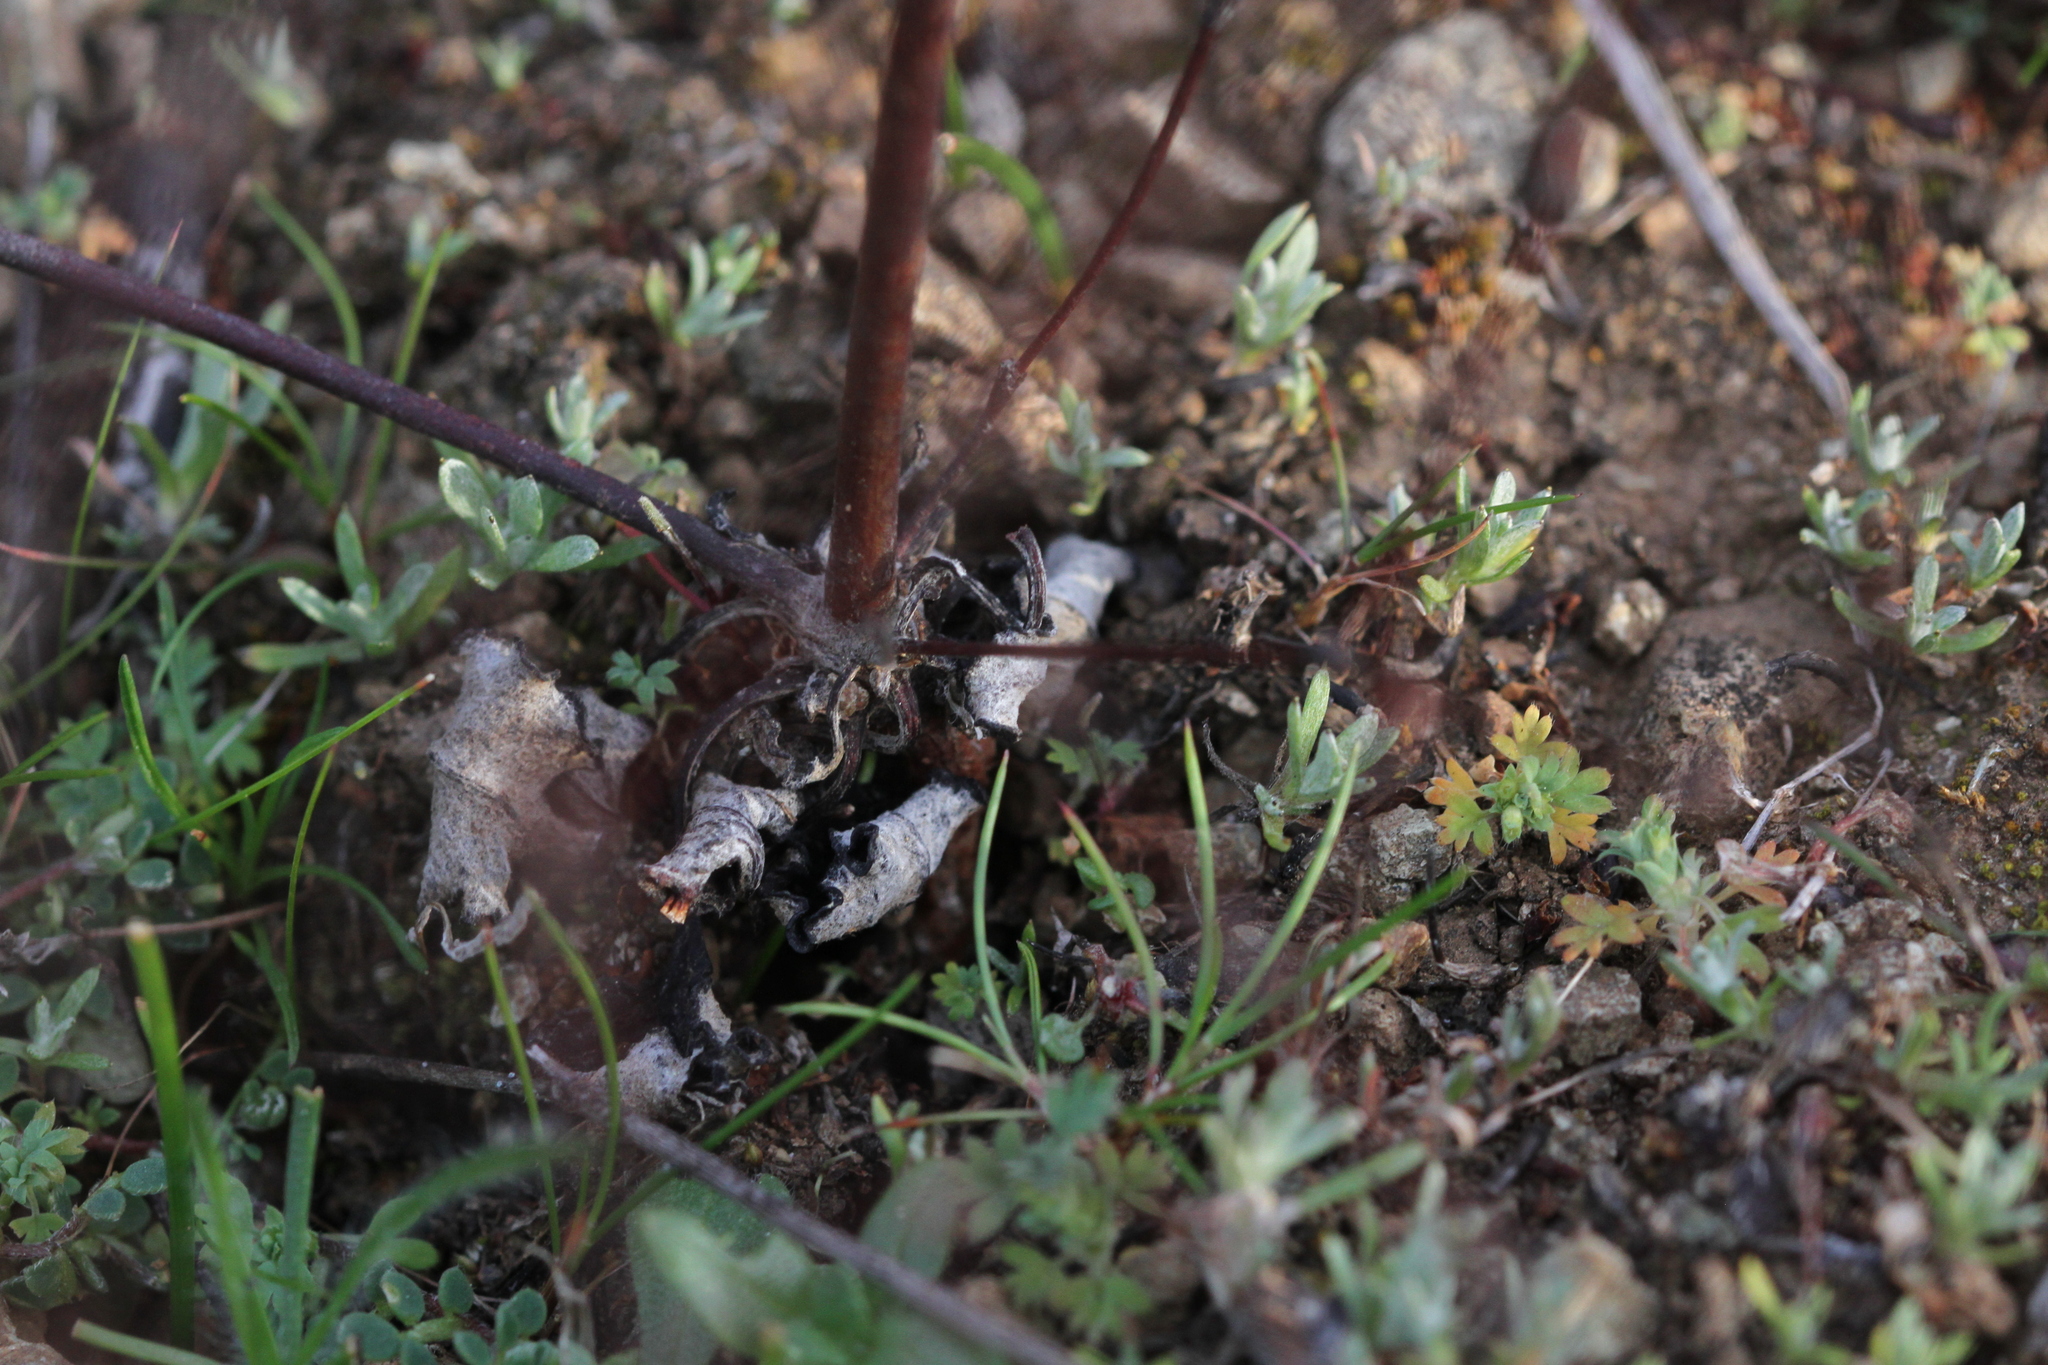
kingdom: Plantae
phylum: Tracheophyta
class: Magnoliopsida
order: Caryophyllales
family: Polygonaceae
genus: Eriogonum
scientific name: Eriogonum luteolum
